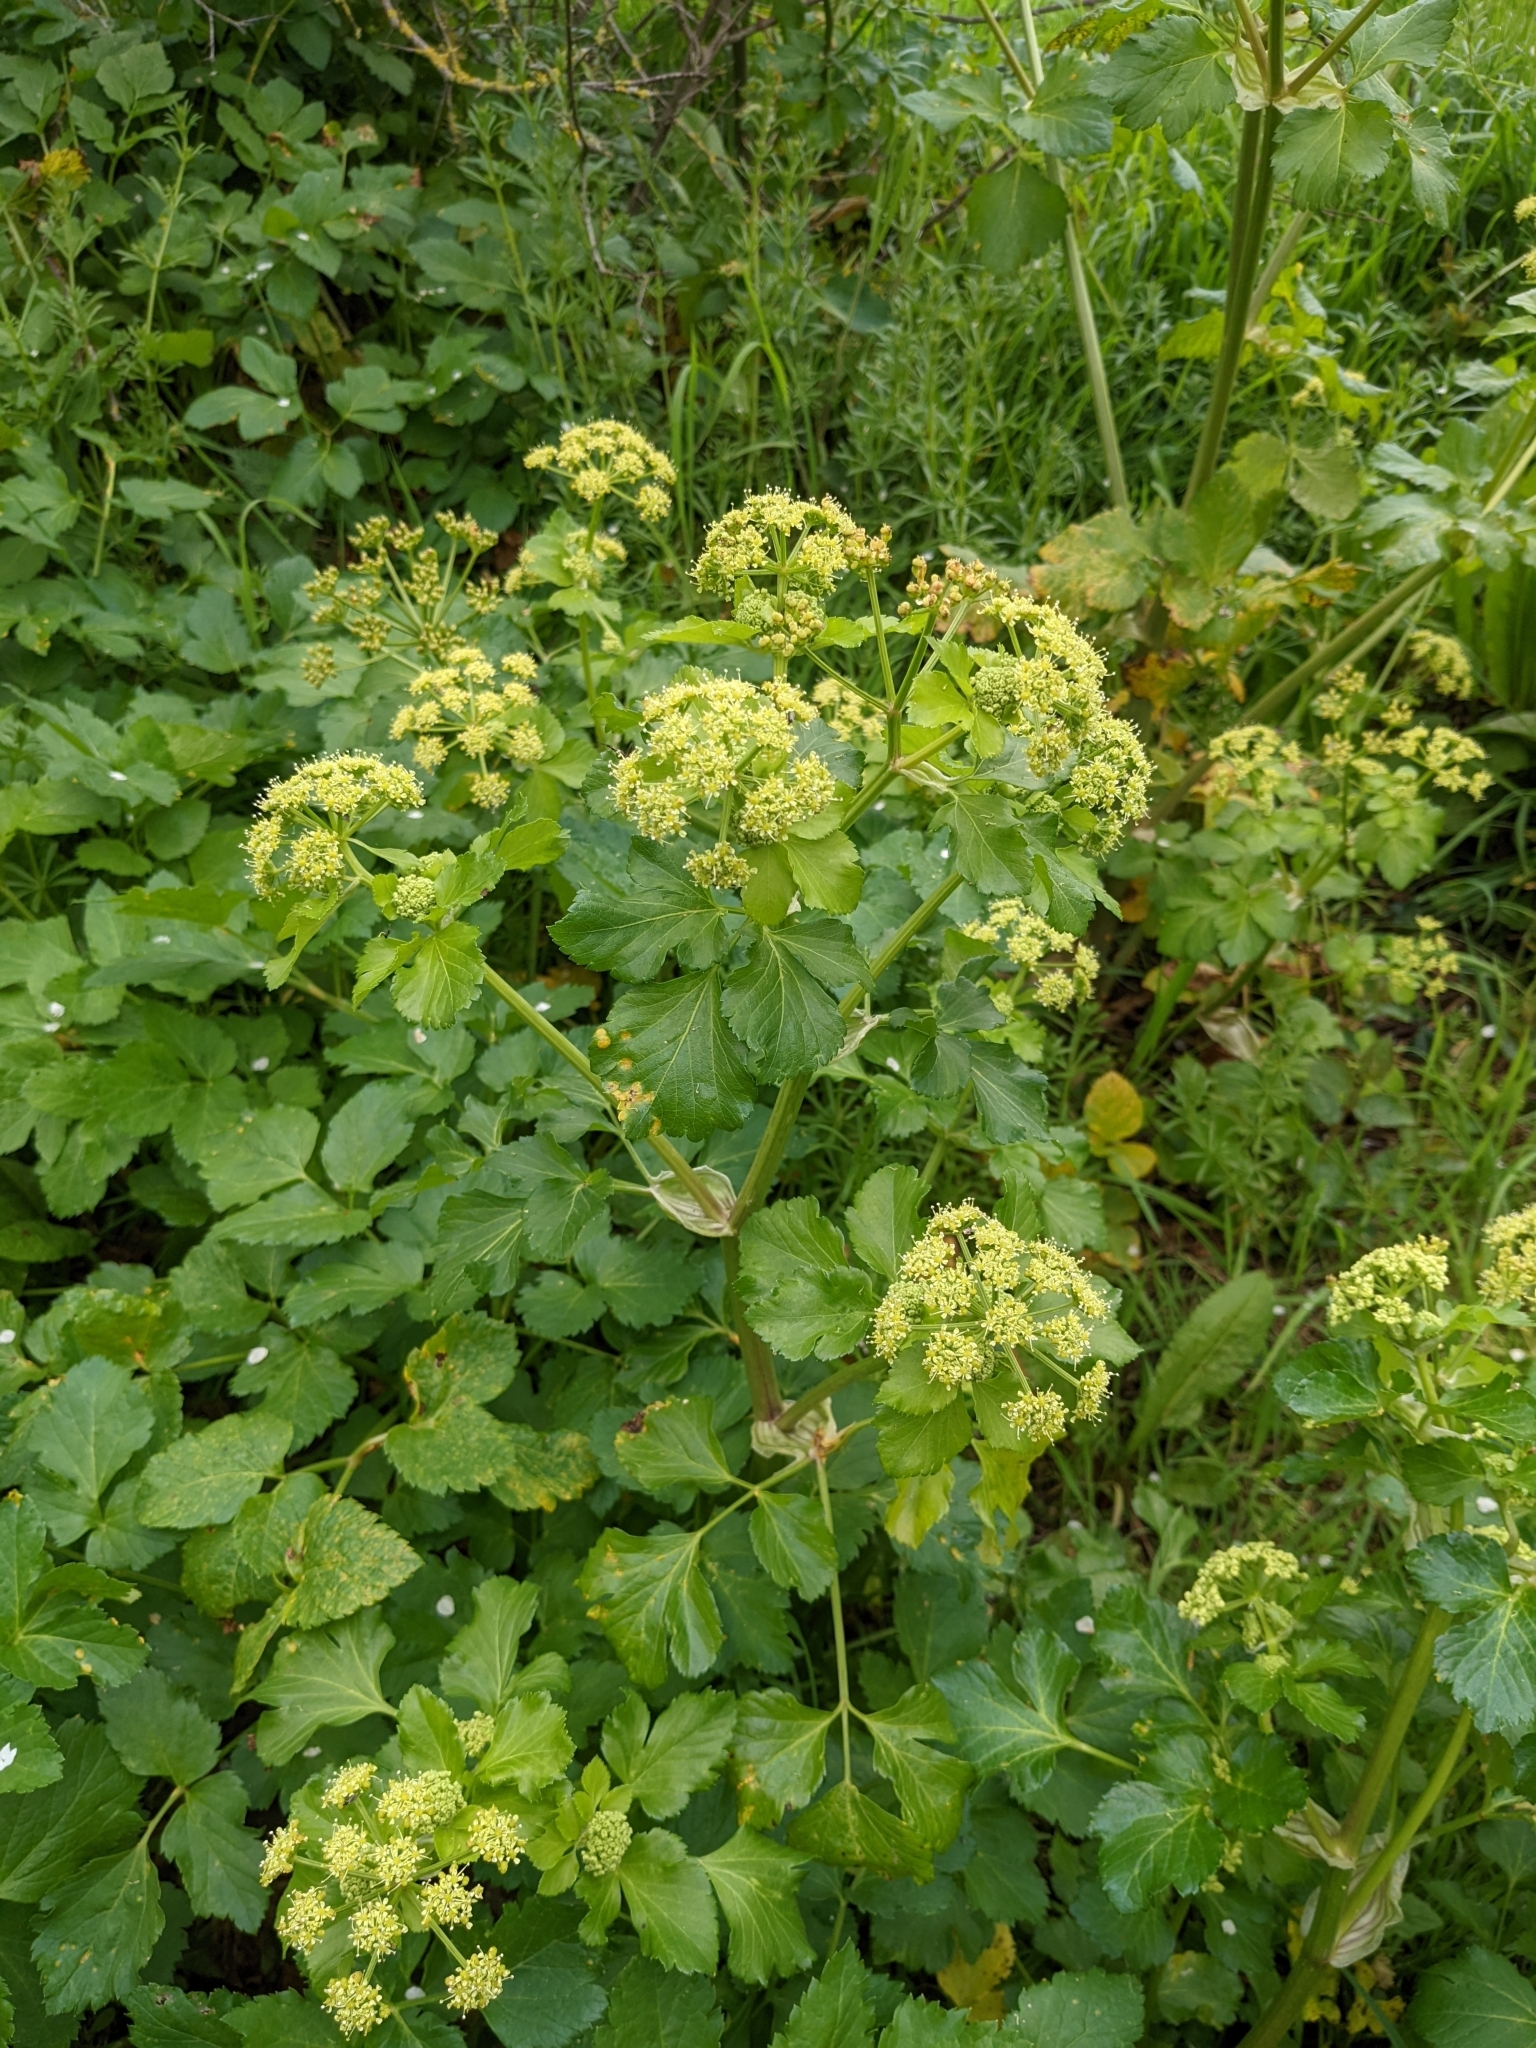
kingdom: Plantae
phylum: Tracheophyta
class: Magnoliopsida
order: Apiales
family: Apiaceae
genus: Smyrnium
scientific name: Smyrnium olusatrum
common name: Alexanders
